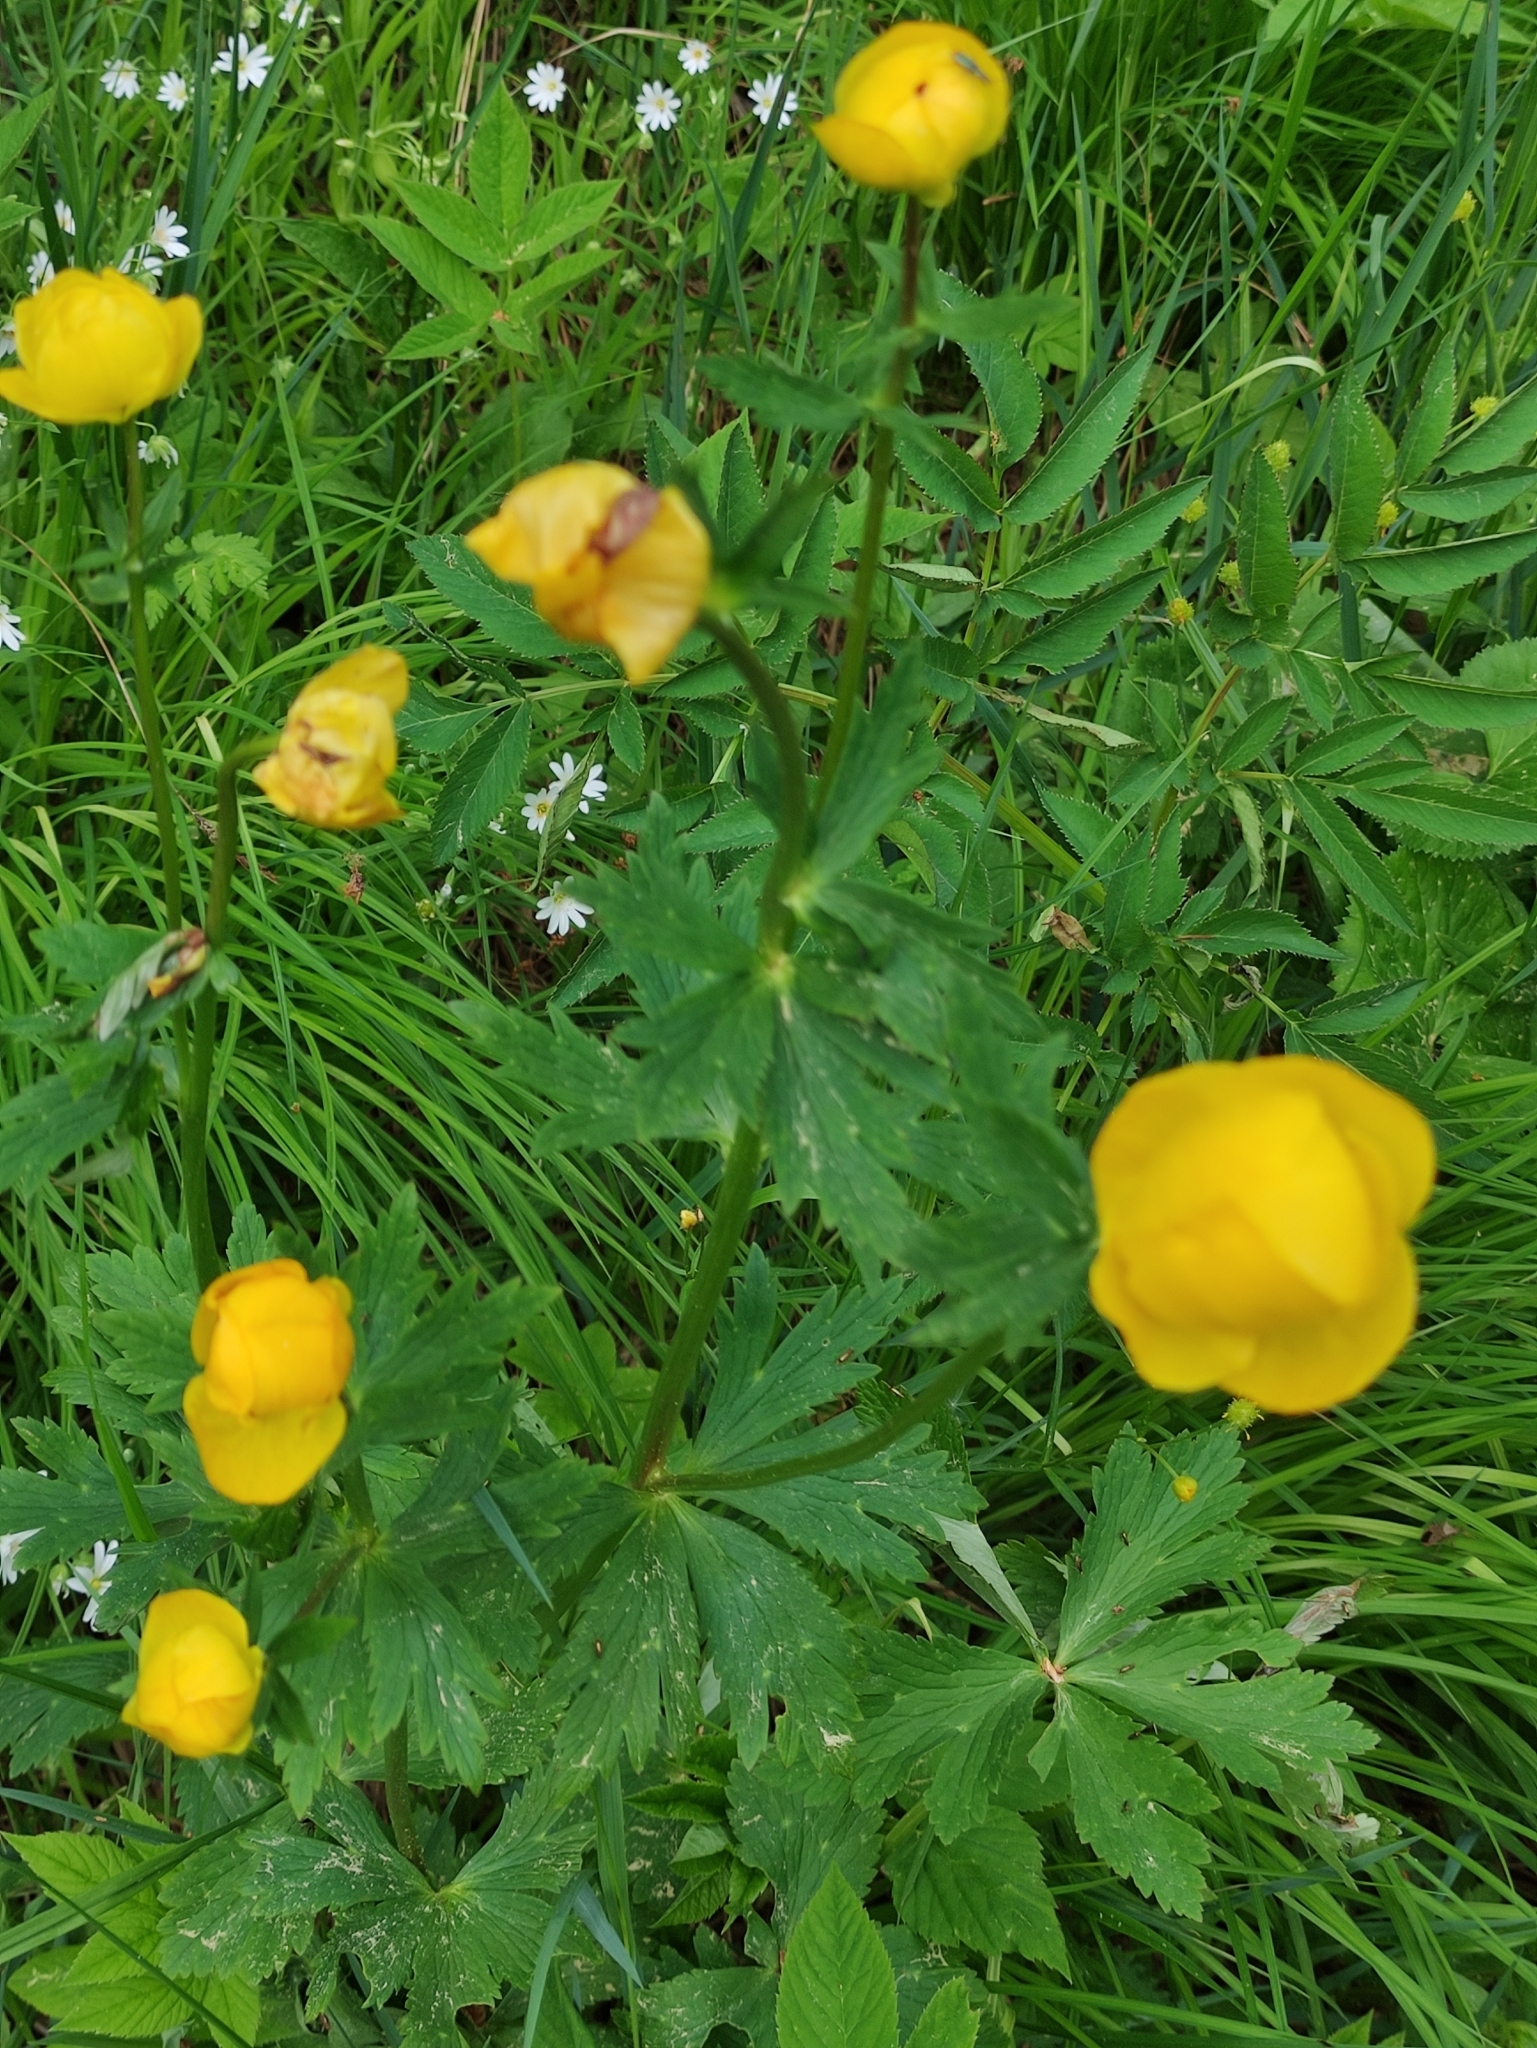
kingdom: Plantae
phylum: Tracheophyta
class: Magnoliopsida
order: Ranunculales
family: Ranunculaceae
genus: Trollius
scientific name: Trollius europaeus
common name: European globeflower
